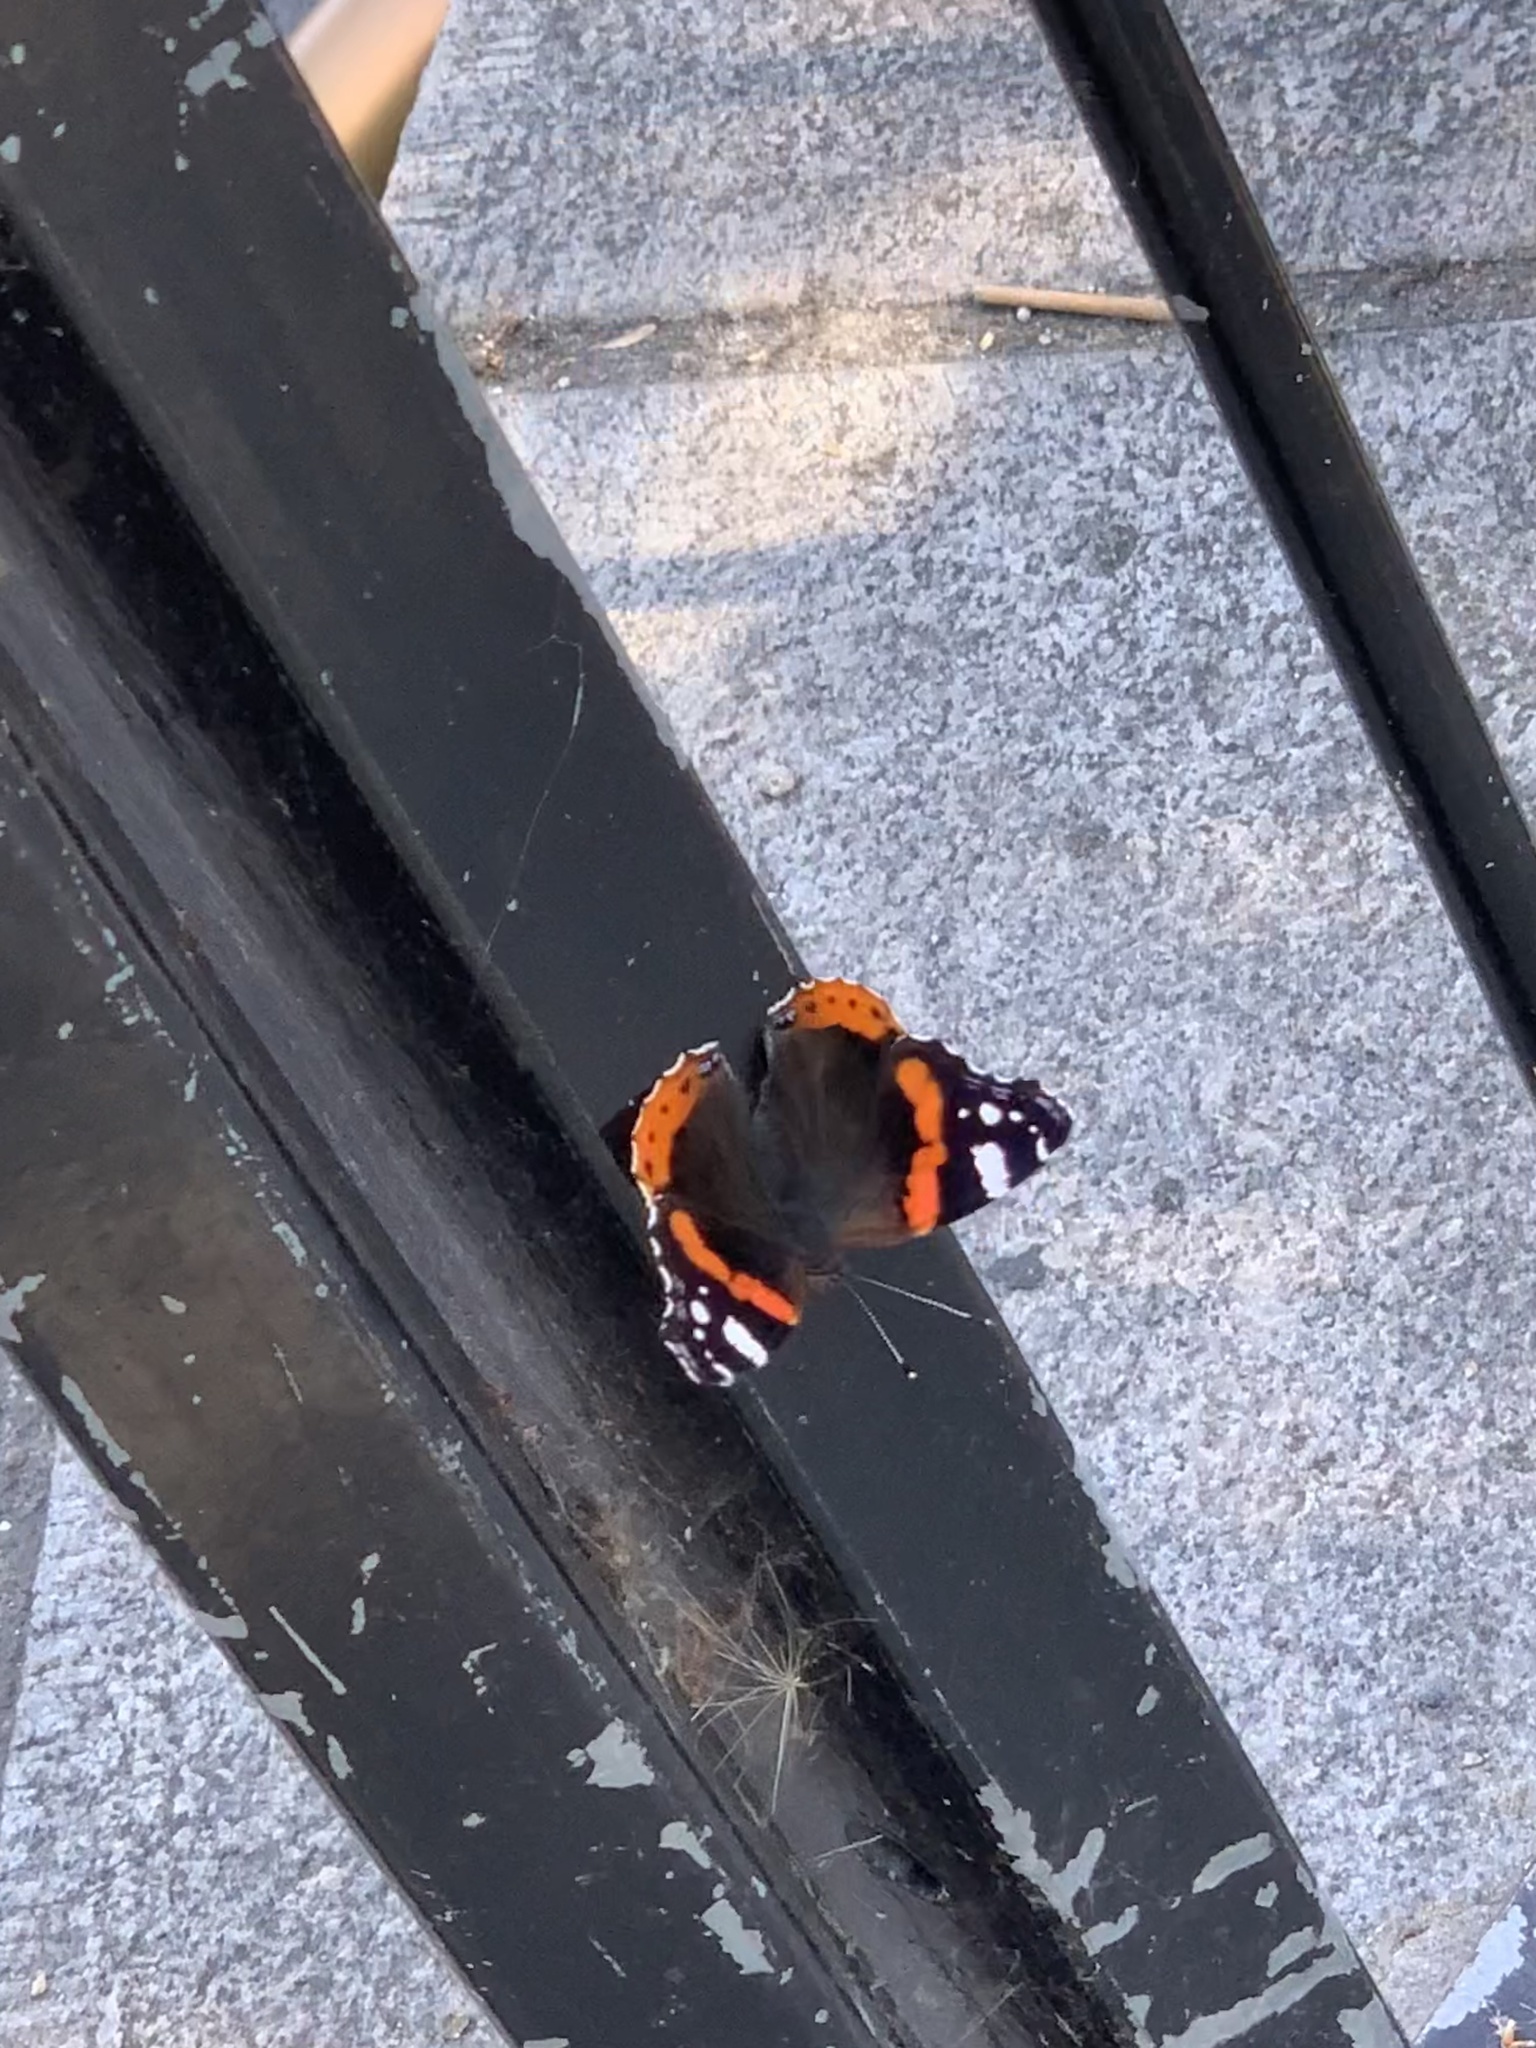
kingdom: Animalia
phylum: Arthropoda
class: Insecta
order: Lepidoptera
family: Nymphalidae
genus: Vanessa
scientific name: Vanessa atalanta
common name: Red admiral
